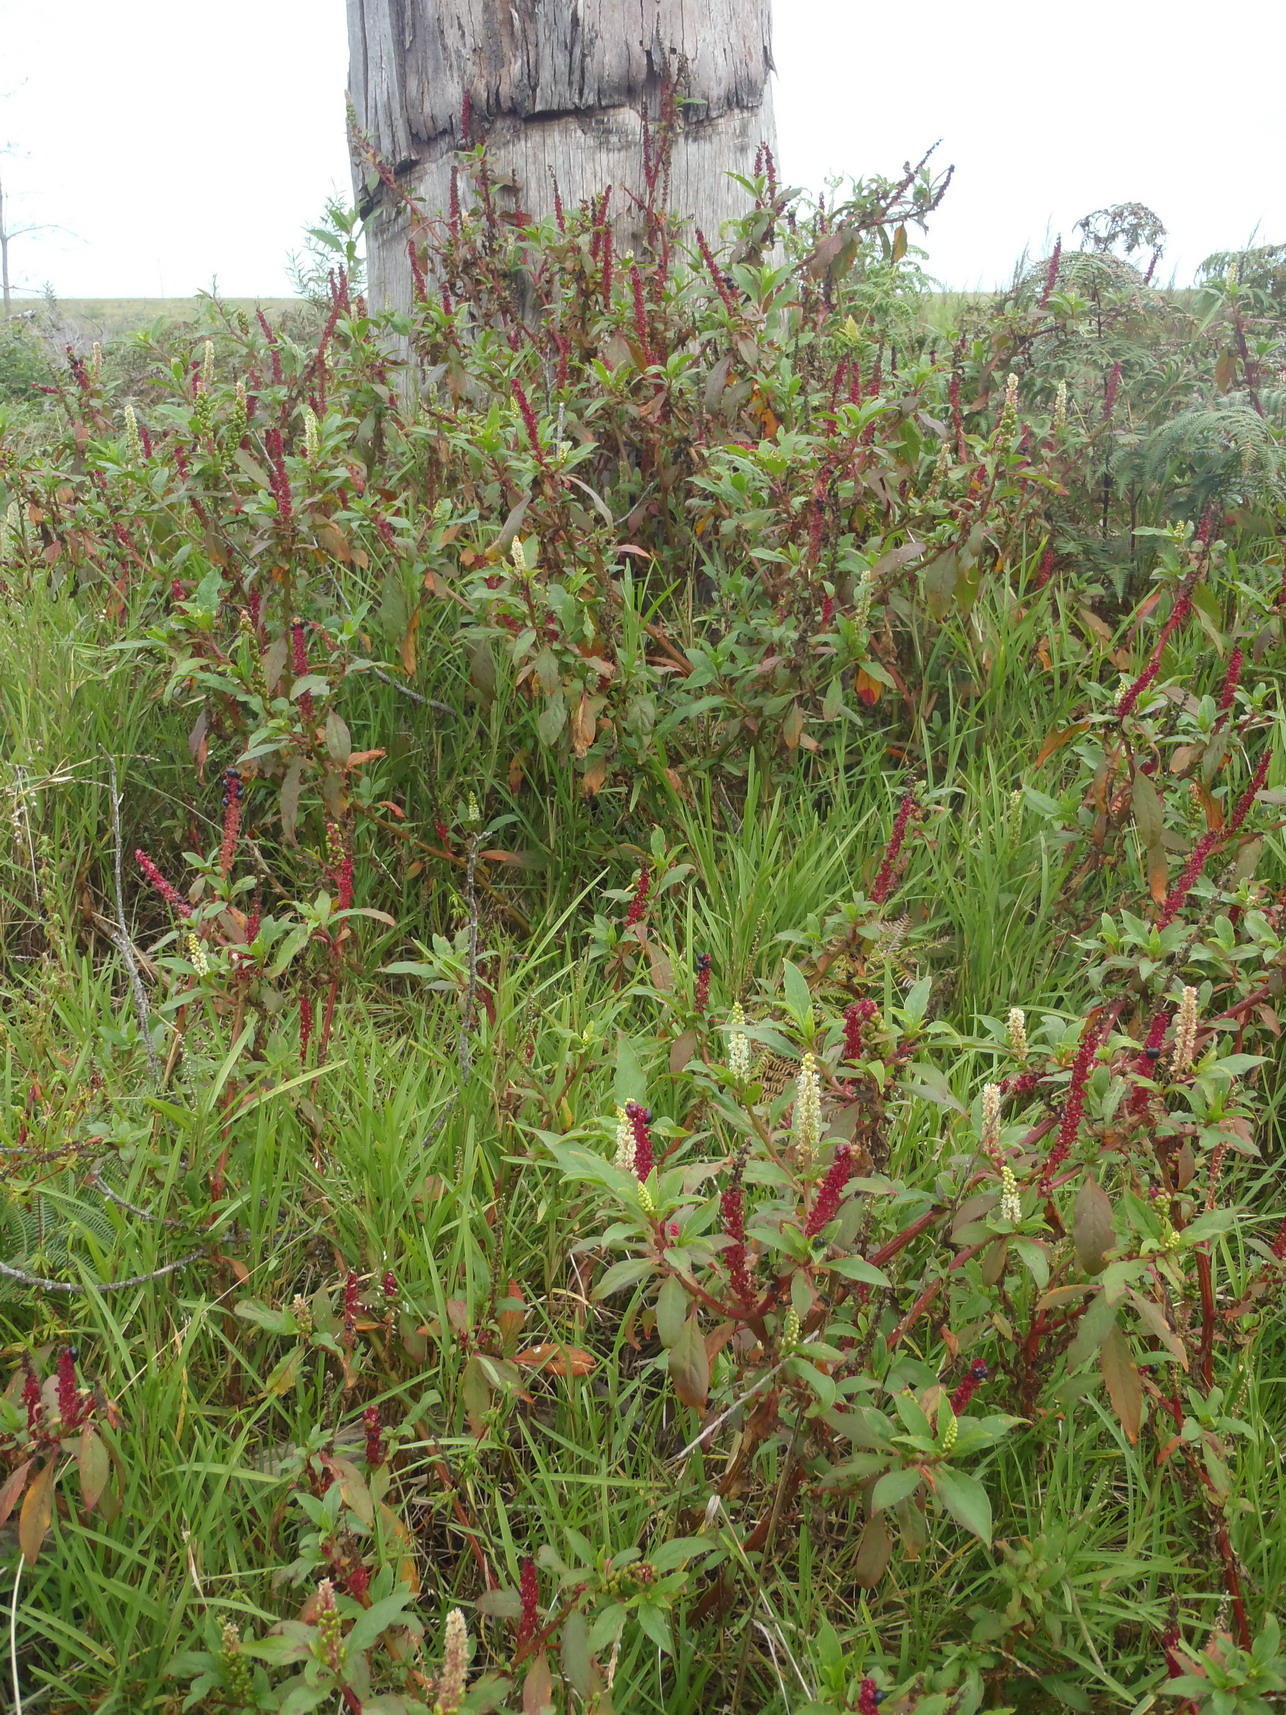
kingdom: Plantae
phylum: Tracheophyta
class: Magnoliopsida
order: Caryophyllales
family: Phytolaccaceae
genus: Phytolacca
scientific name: Phytolacca icosandra
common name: Button pokeweed
